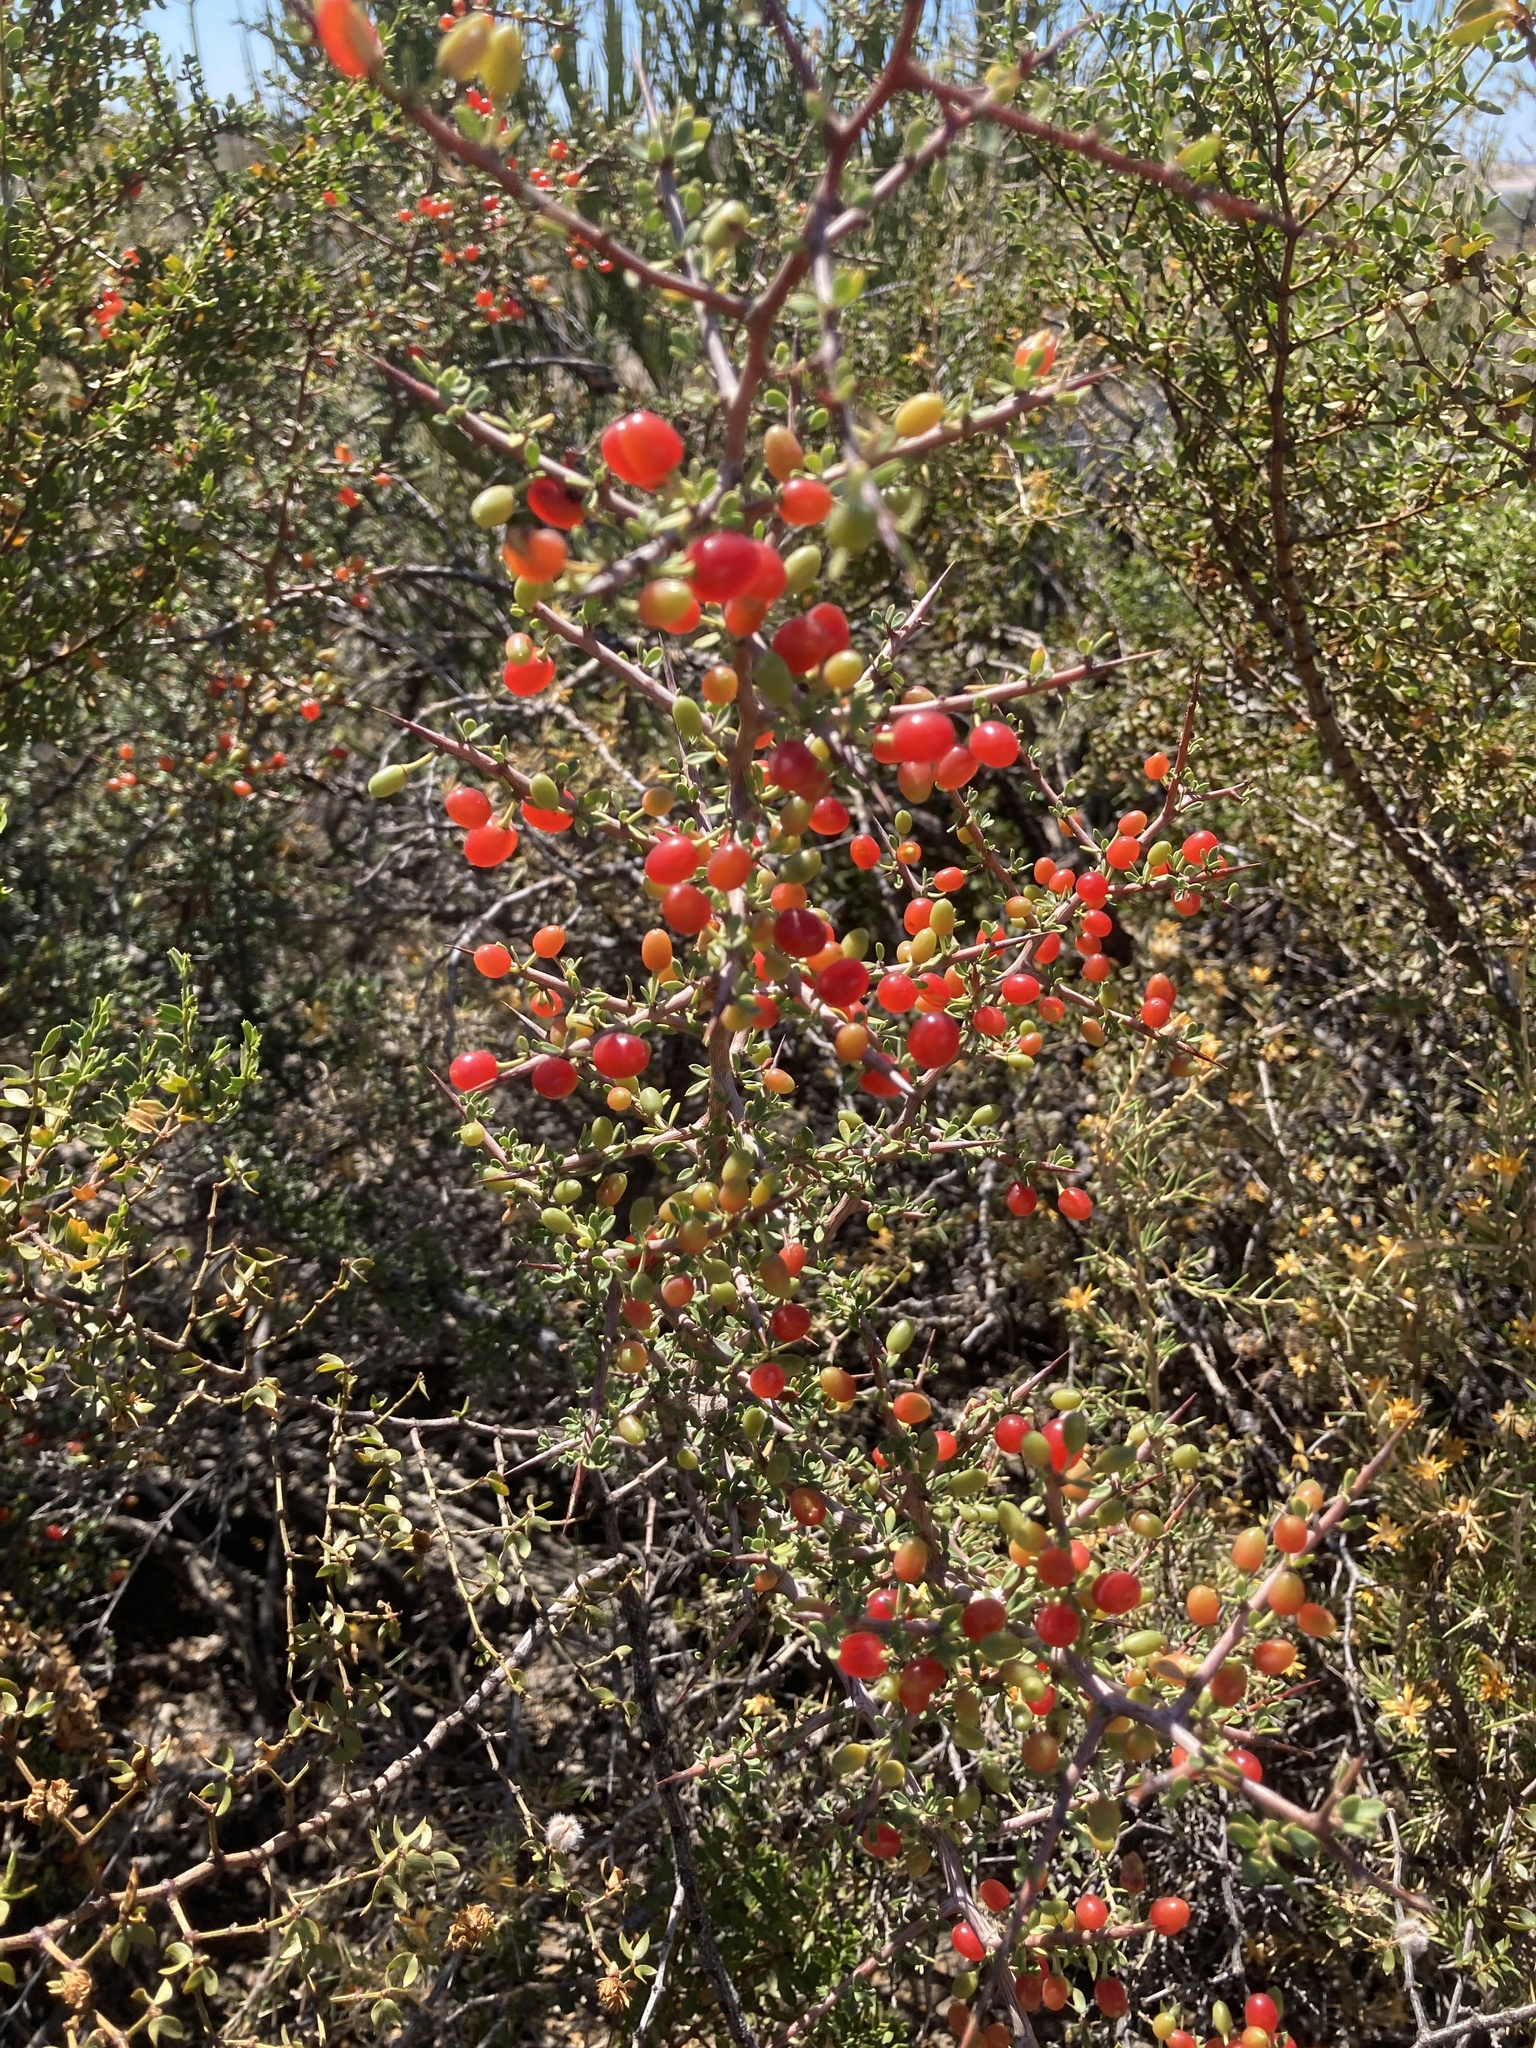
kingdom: Plantae
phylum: Tracheophyta
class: Magnoliopsida
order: Rosales
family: Rhamnaceae
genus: Condalia
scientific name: Condalia microphylla
